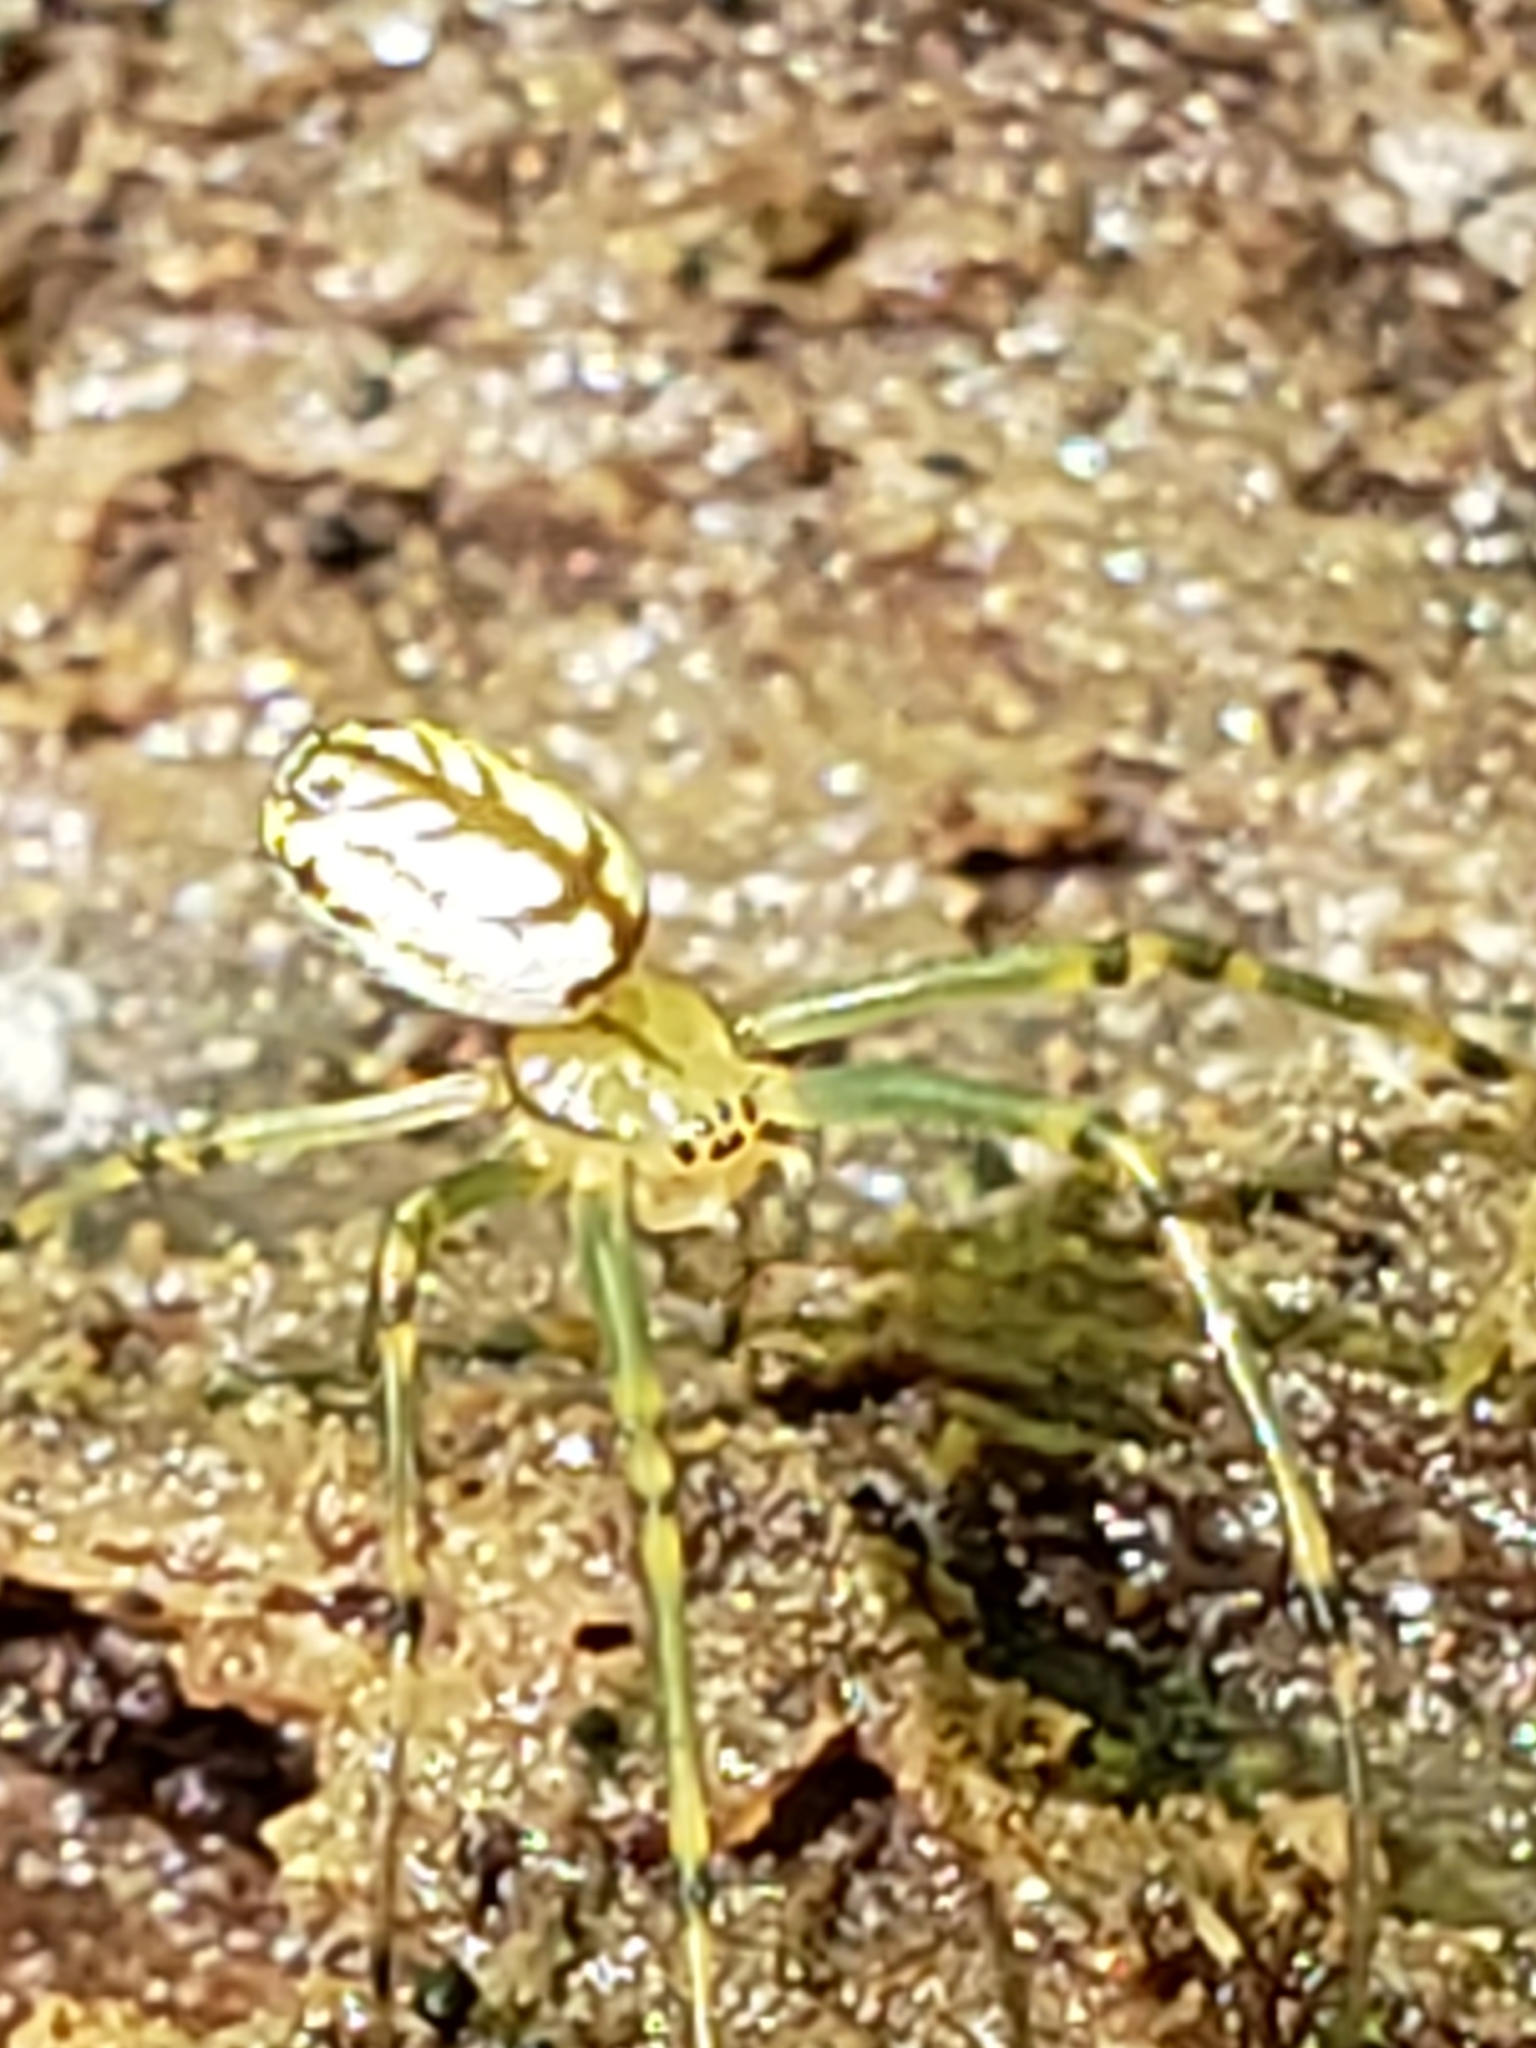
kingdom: Animalia
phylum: Arthropoda
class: Arachnida
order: Araneae
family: Tetragnathidae
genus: Leucauge
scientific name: Leucauge venusta
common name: Longjawed orb weavers
